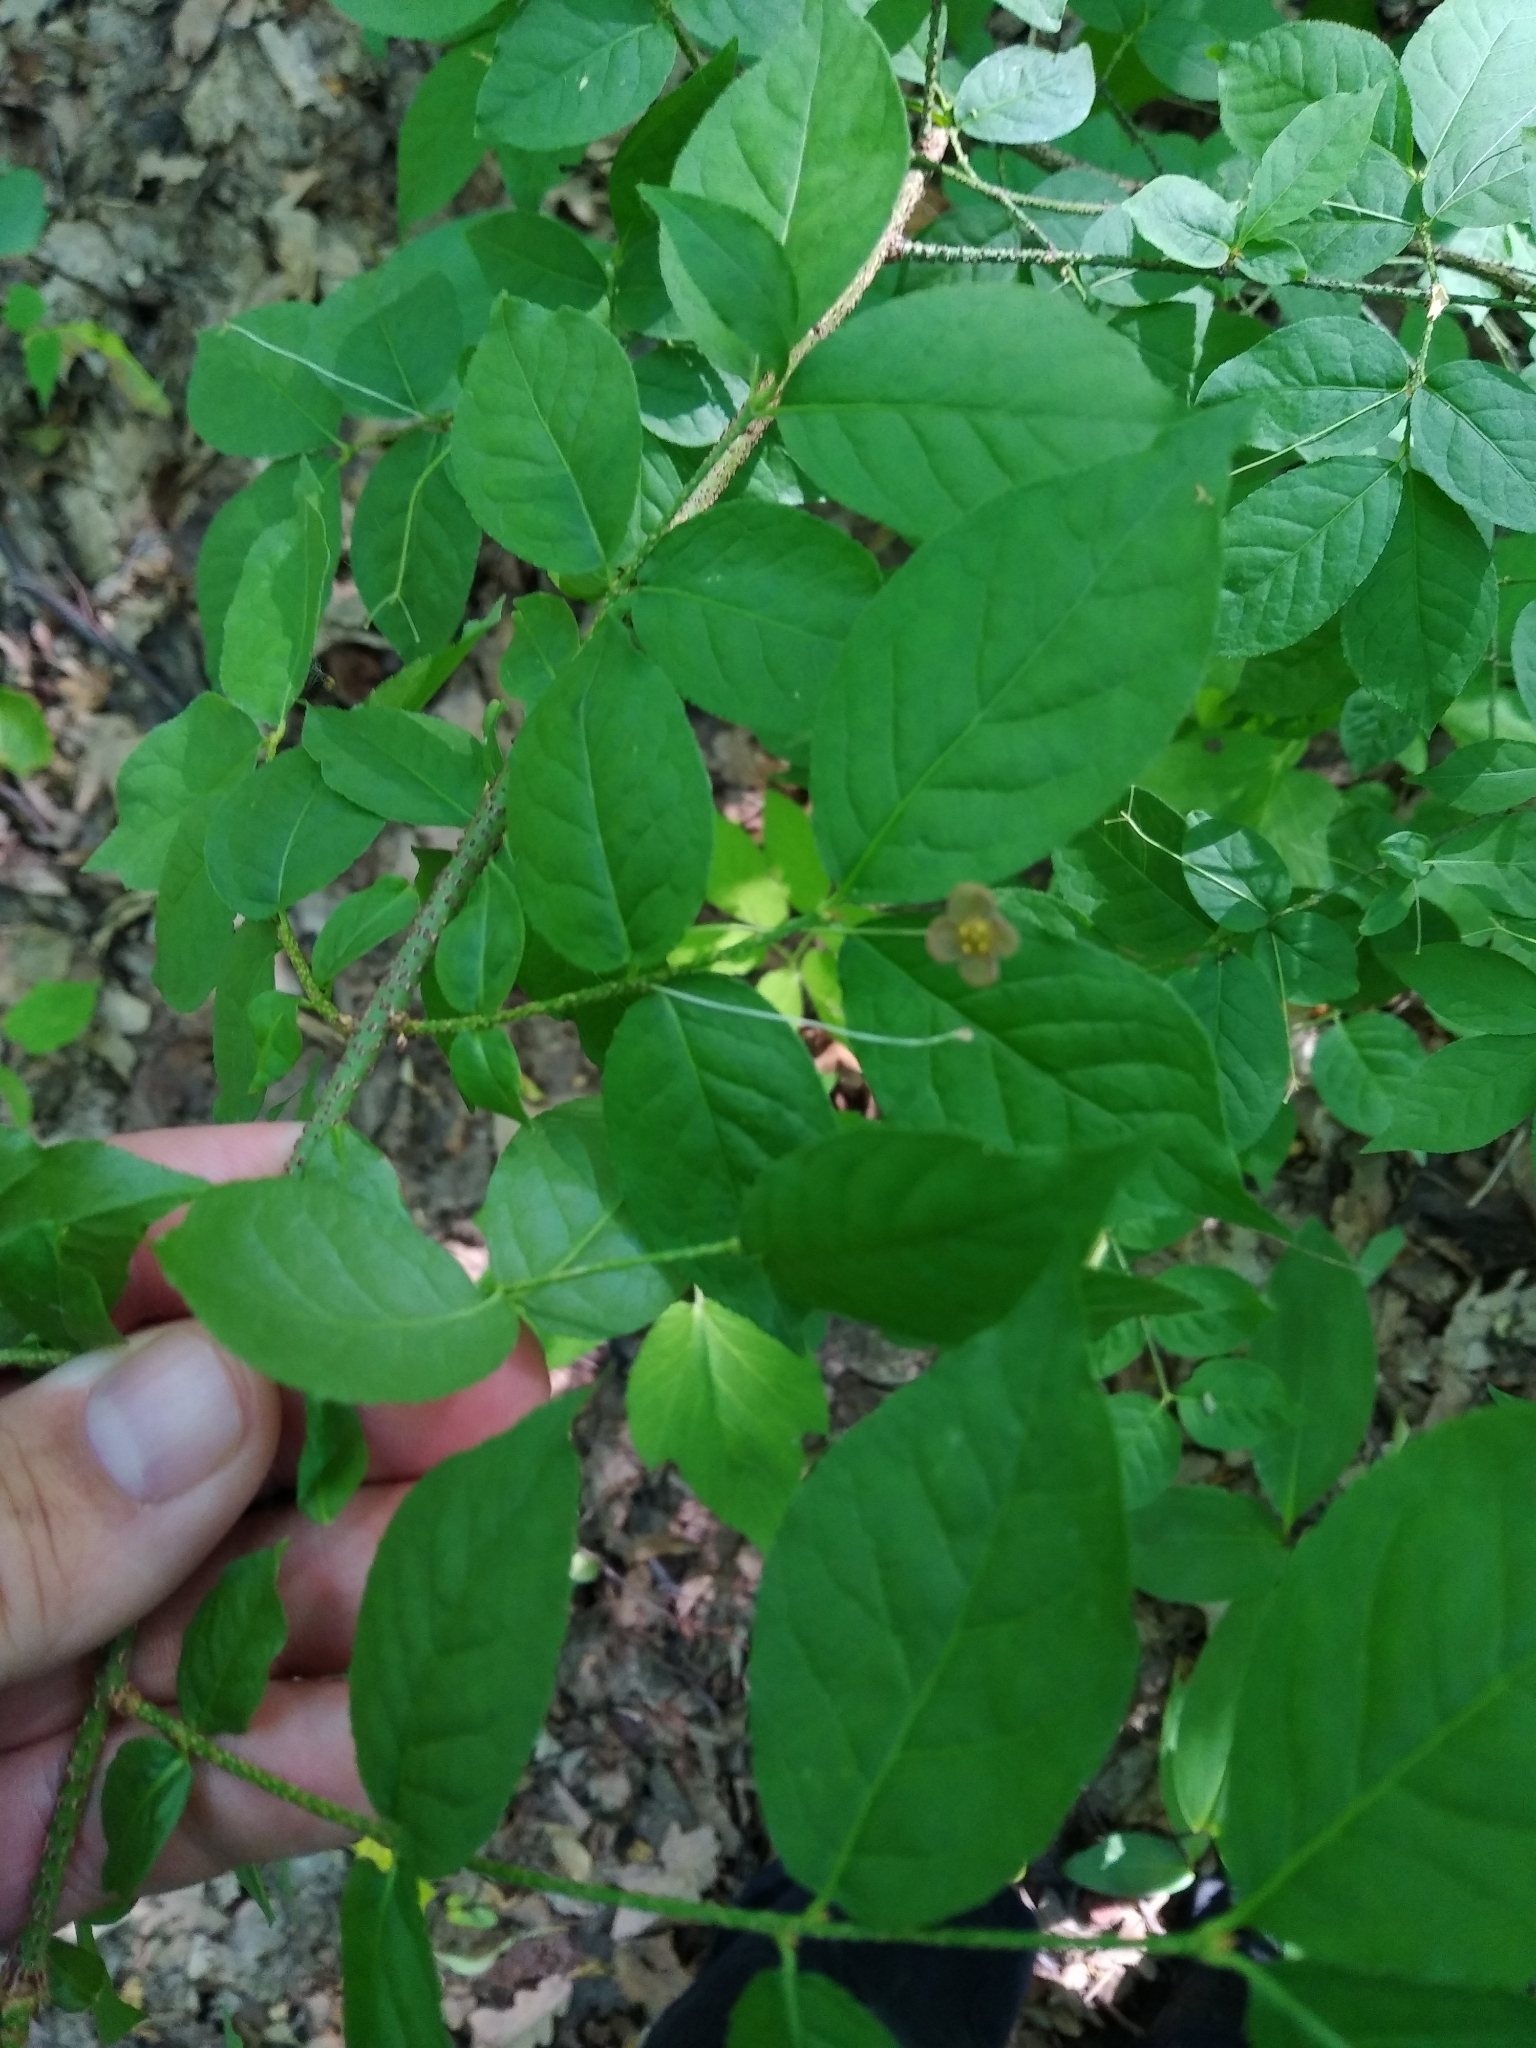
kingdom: Plantae
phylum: Tracheophyta
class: Magnoliopsida
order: Celastrales
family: Celastraceae
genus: Euonymus
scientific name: Euonymus verrucosus
